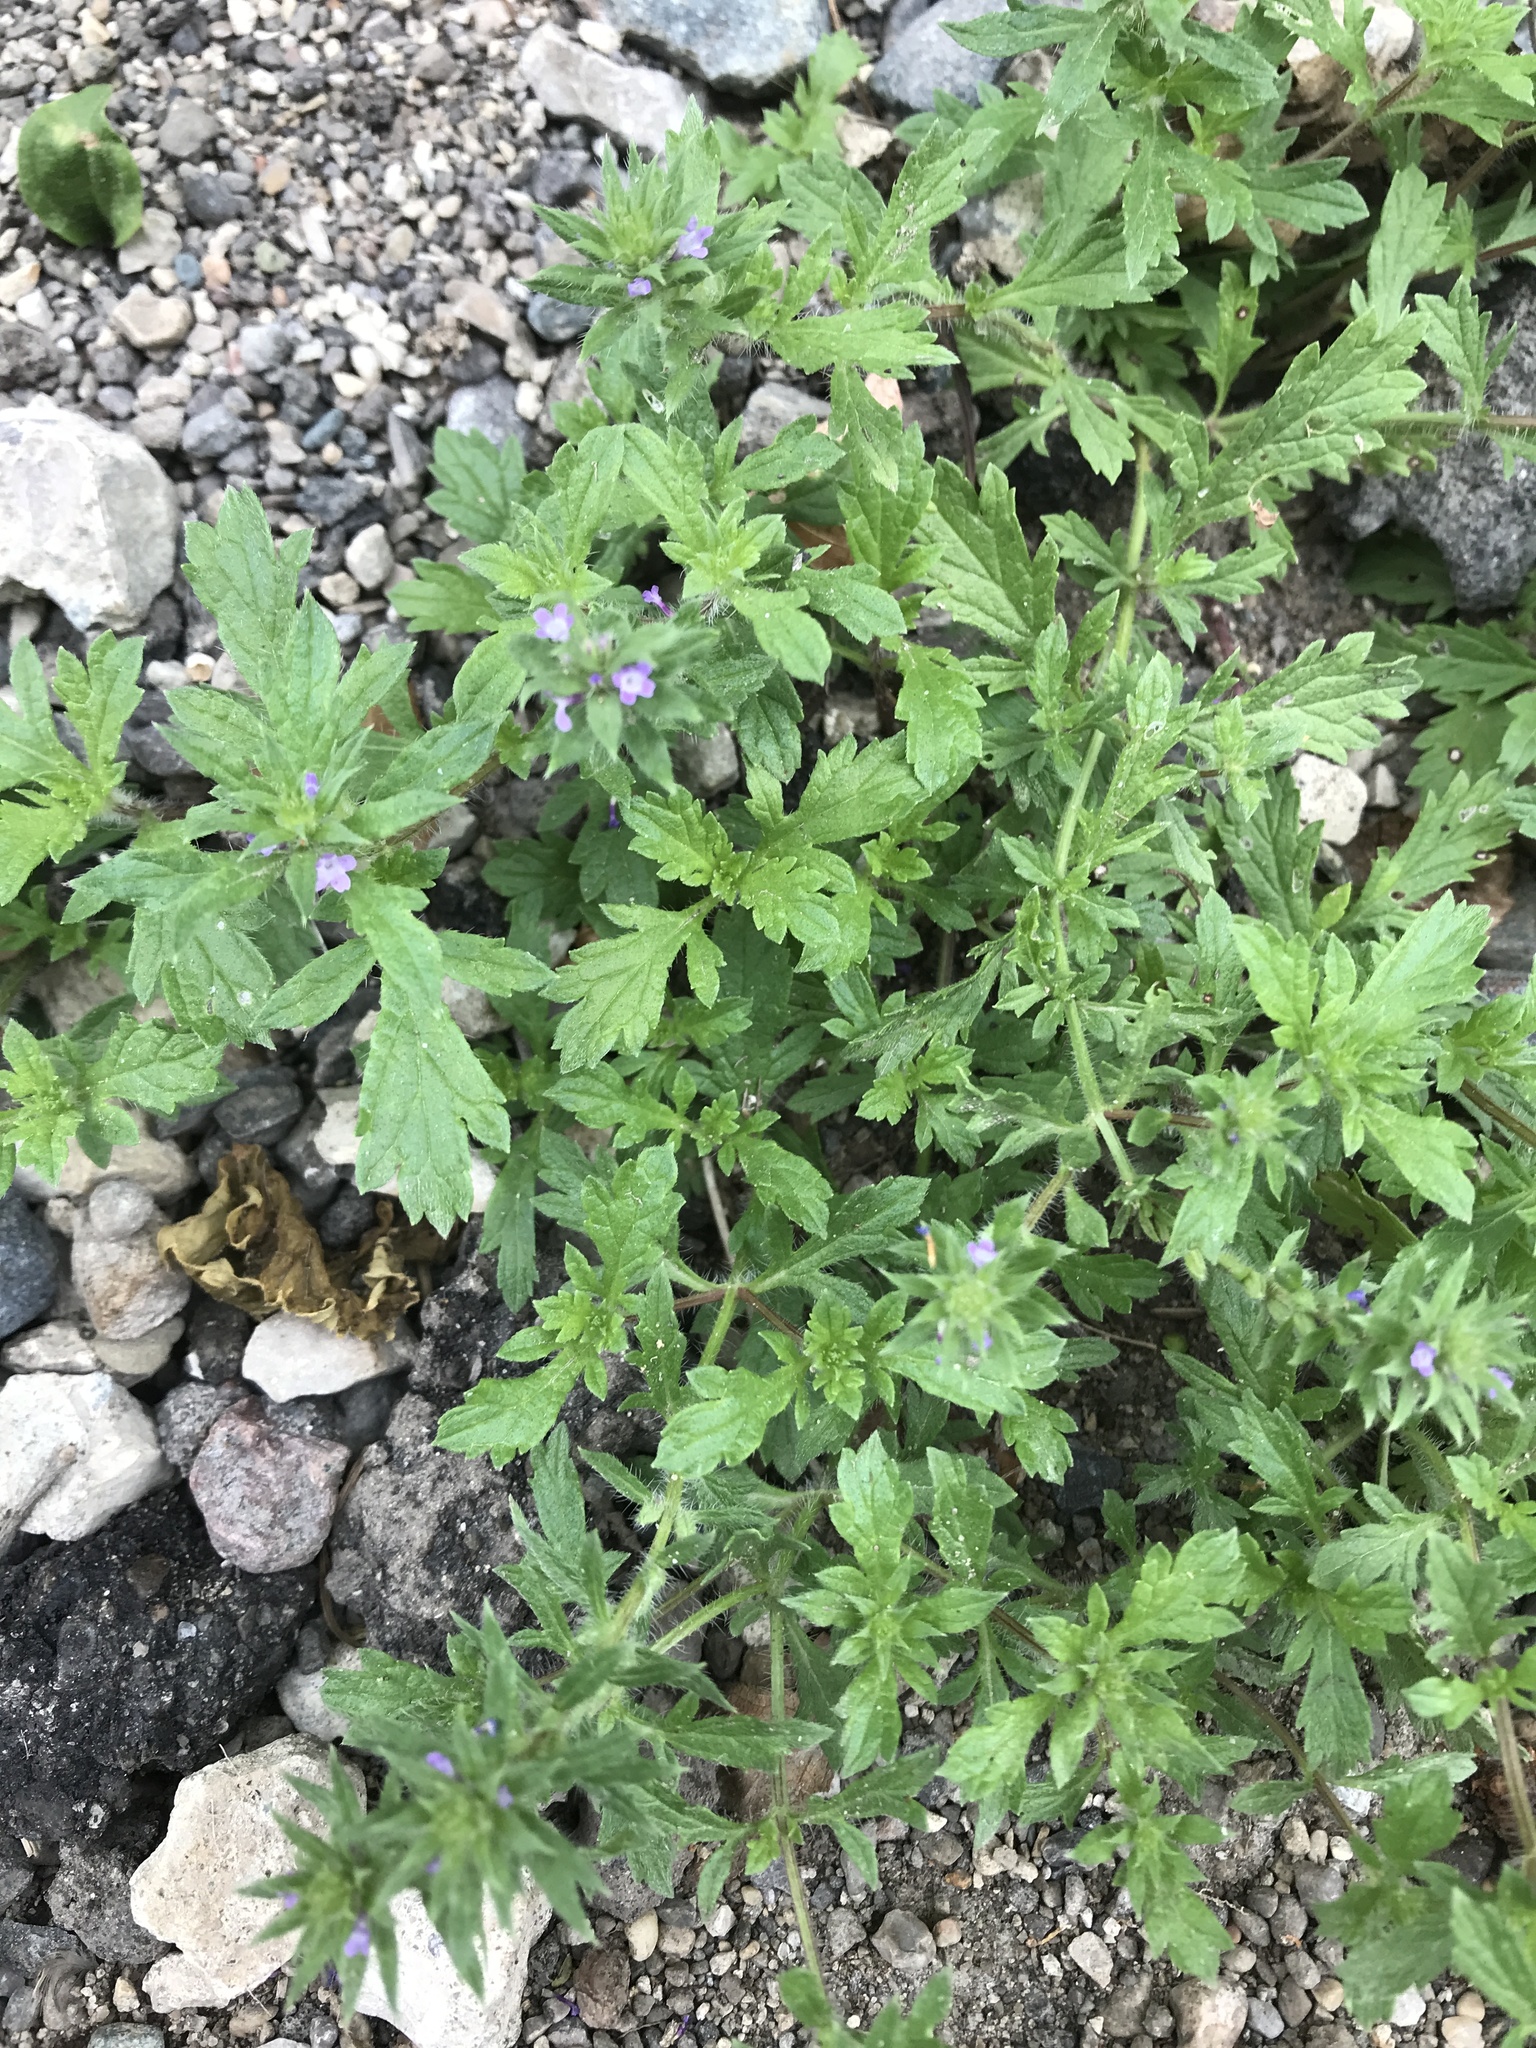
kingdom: Plantae
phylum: Tracheophyta
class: Magnoliopsida
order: Lamiales
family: Verbenaceae
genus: Verbena
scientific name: Verbena bracteata
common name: Bracted vervain
